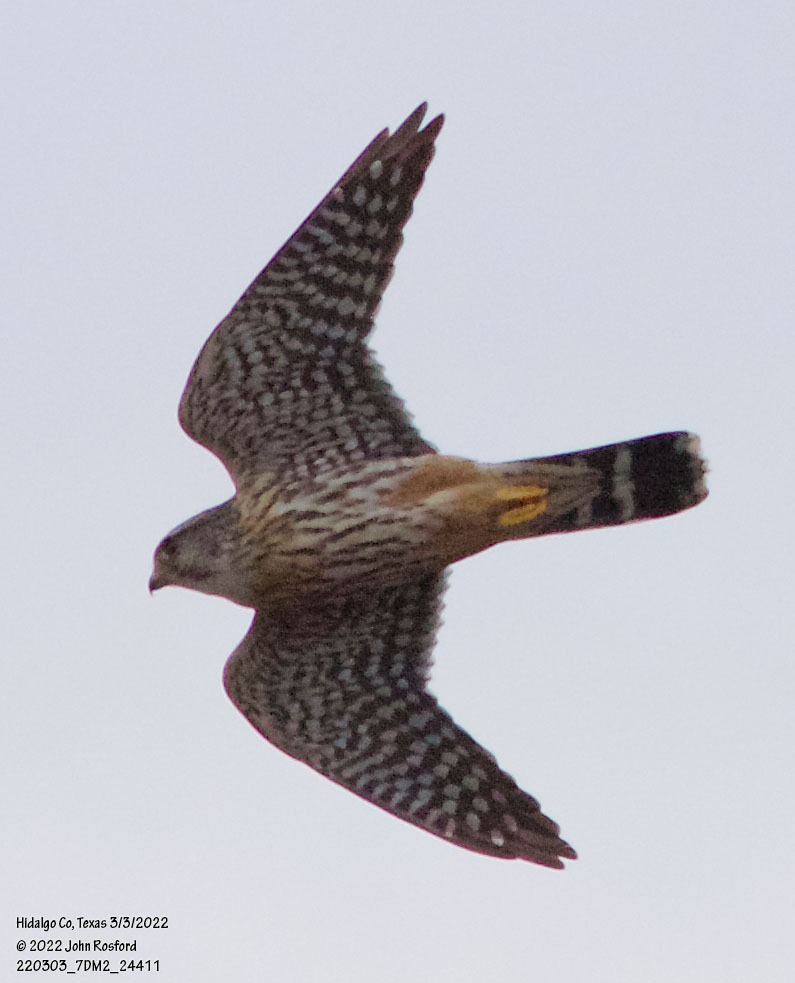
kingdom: Animalia
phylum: Chordata
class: Aves
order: Falconiformes
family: Falconidae
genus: Falco
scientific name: Falco columbarius
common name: Merlin
